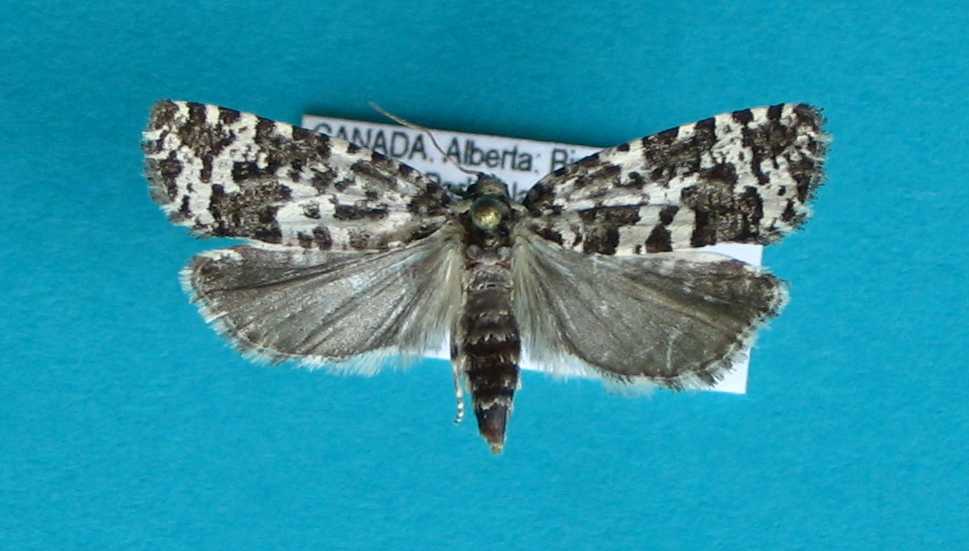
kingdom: Animalia
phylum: Arthropoda
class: Insecta
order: Lepidoptera
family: Tortricidae
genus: Retinia
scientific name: Retinia burkeana
